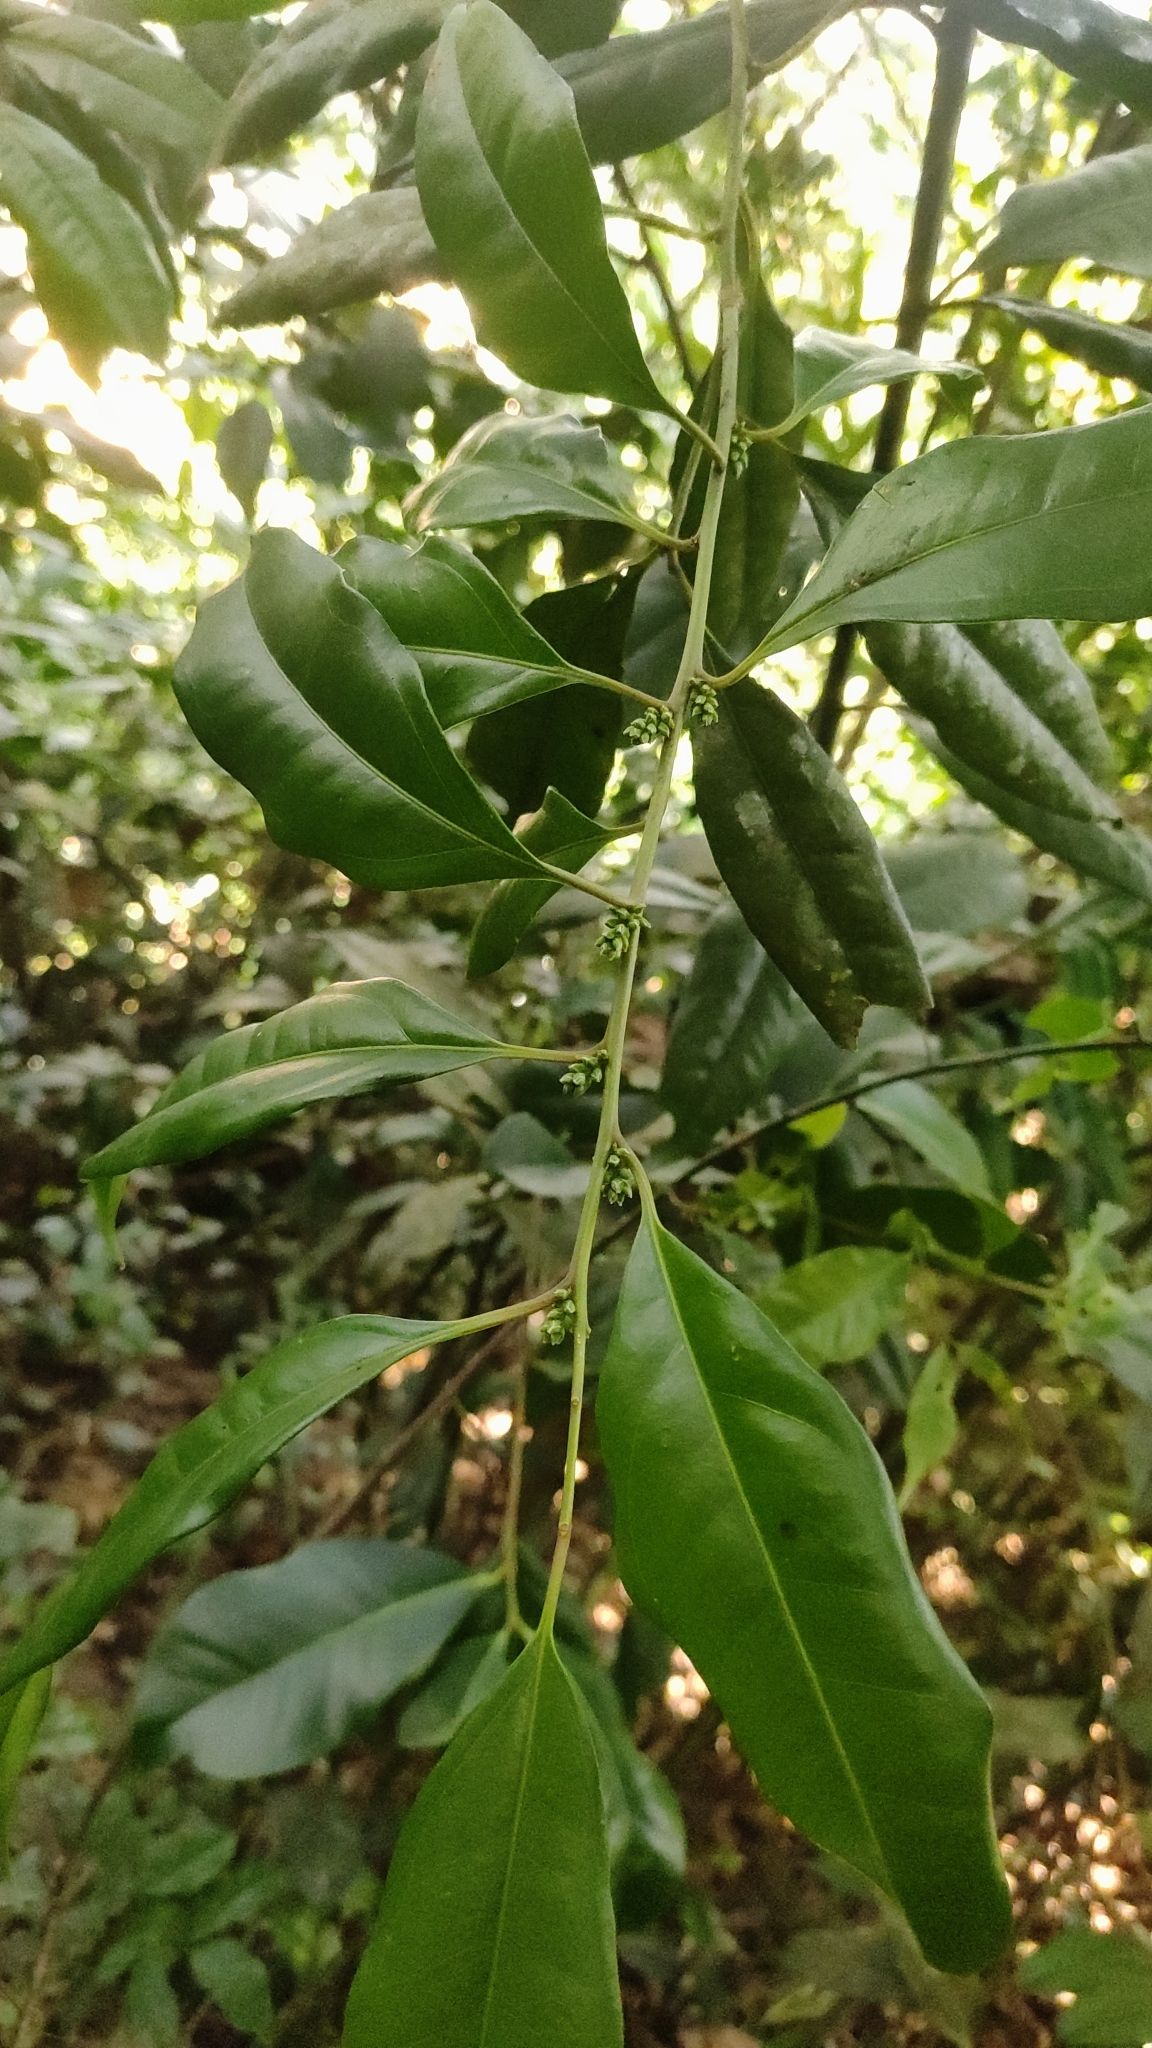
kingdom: Plantae
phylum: Tracheophyta
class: Magnoliopsida
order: Buxales
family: Buxaceae
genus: Sarcococca
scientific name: Sarcococca coriacea
